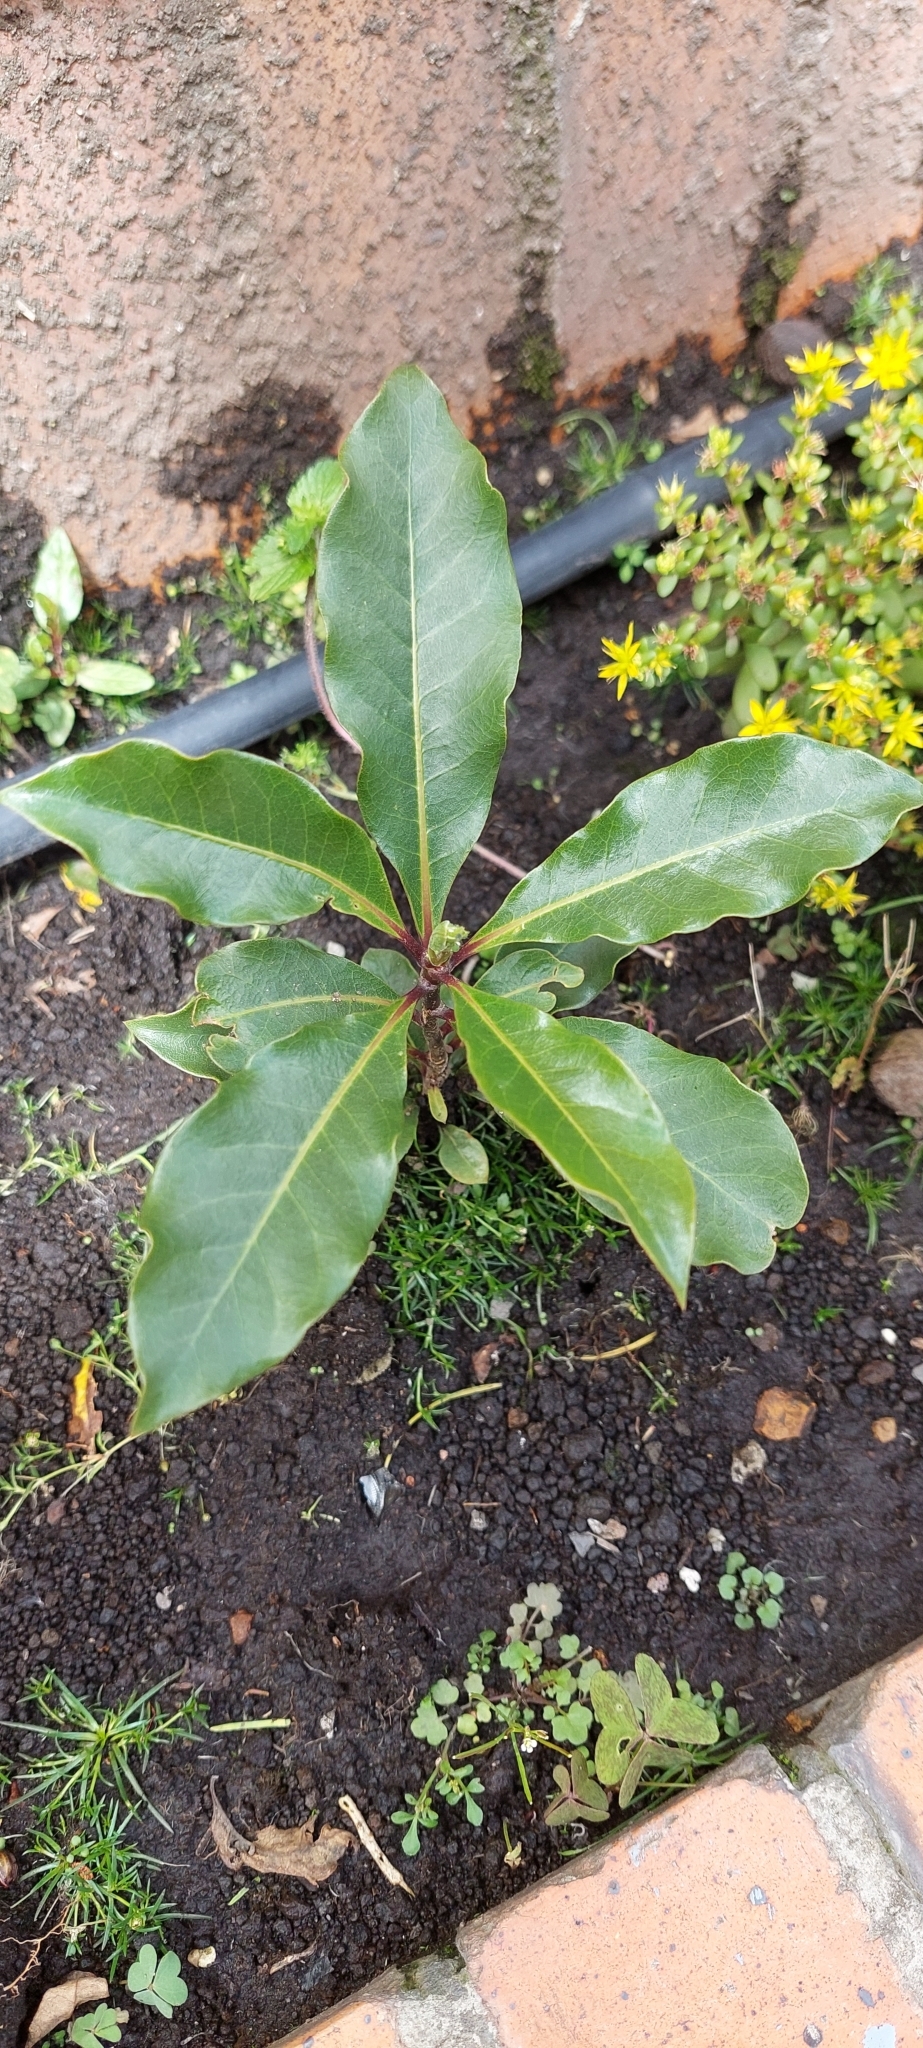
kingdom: Plantae
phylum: Tracheophyta
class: Magnoliopsida
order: Apiales
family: Pittosporaceae
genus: Pittosporum
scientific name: Pittosporum undulatum
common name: Australian cheesewood
